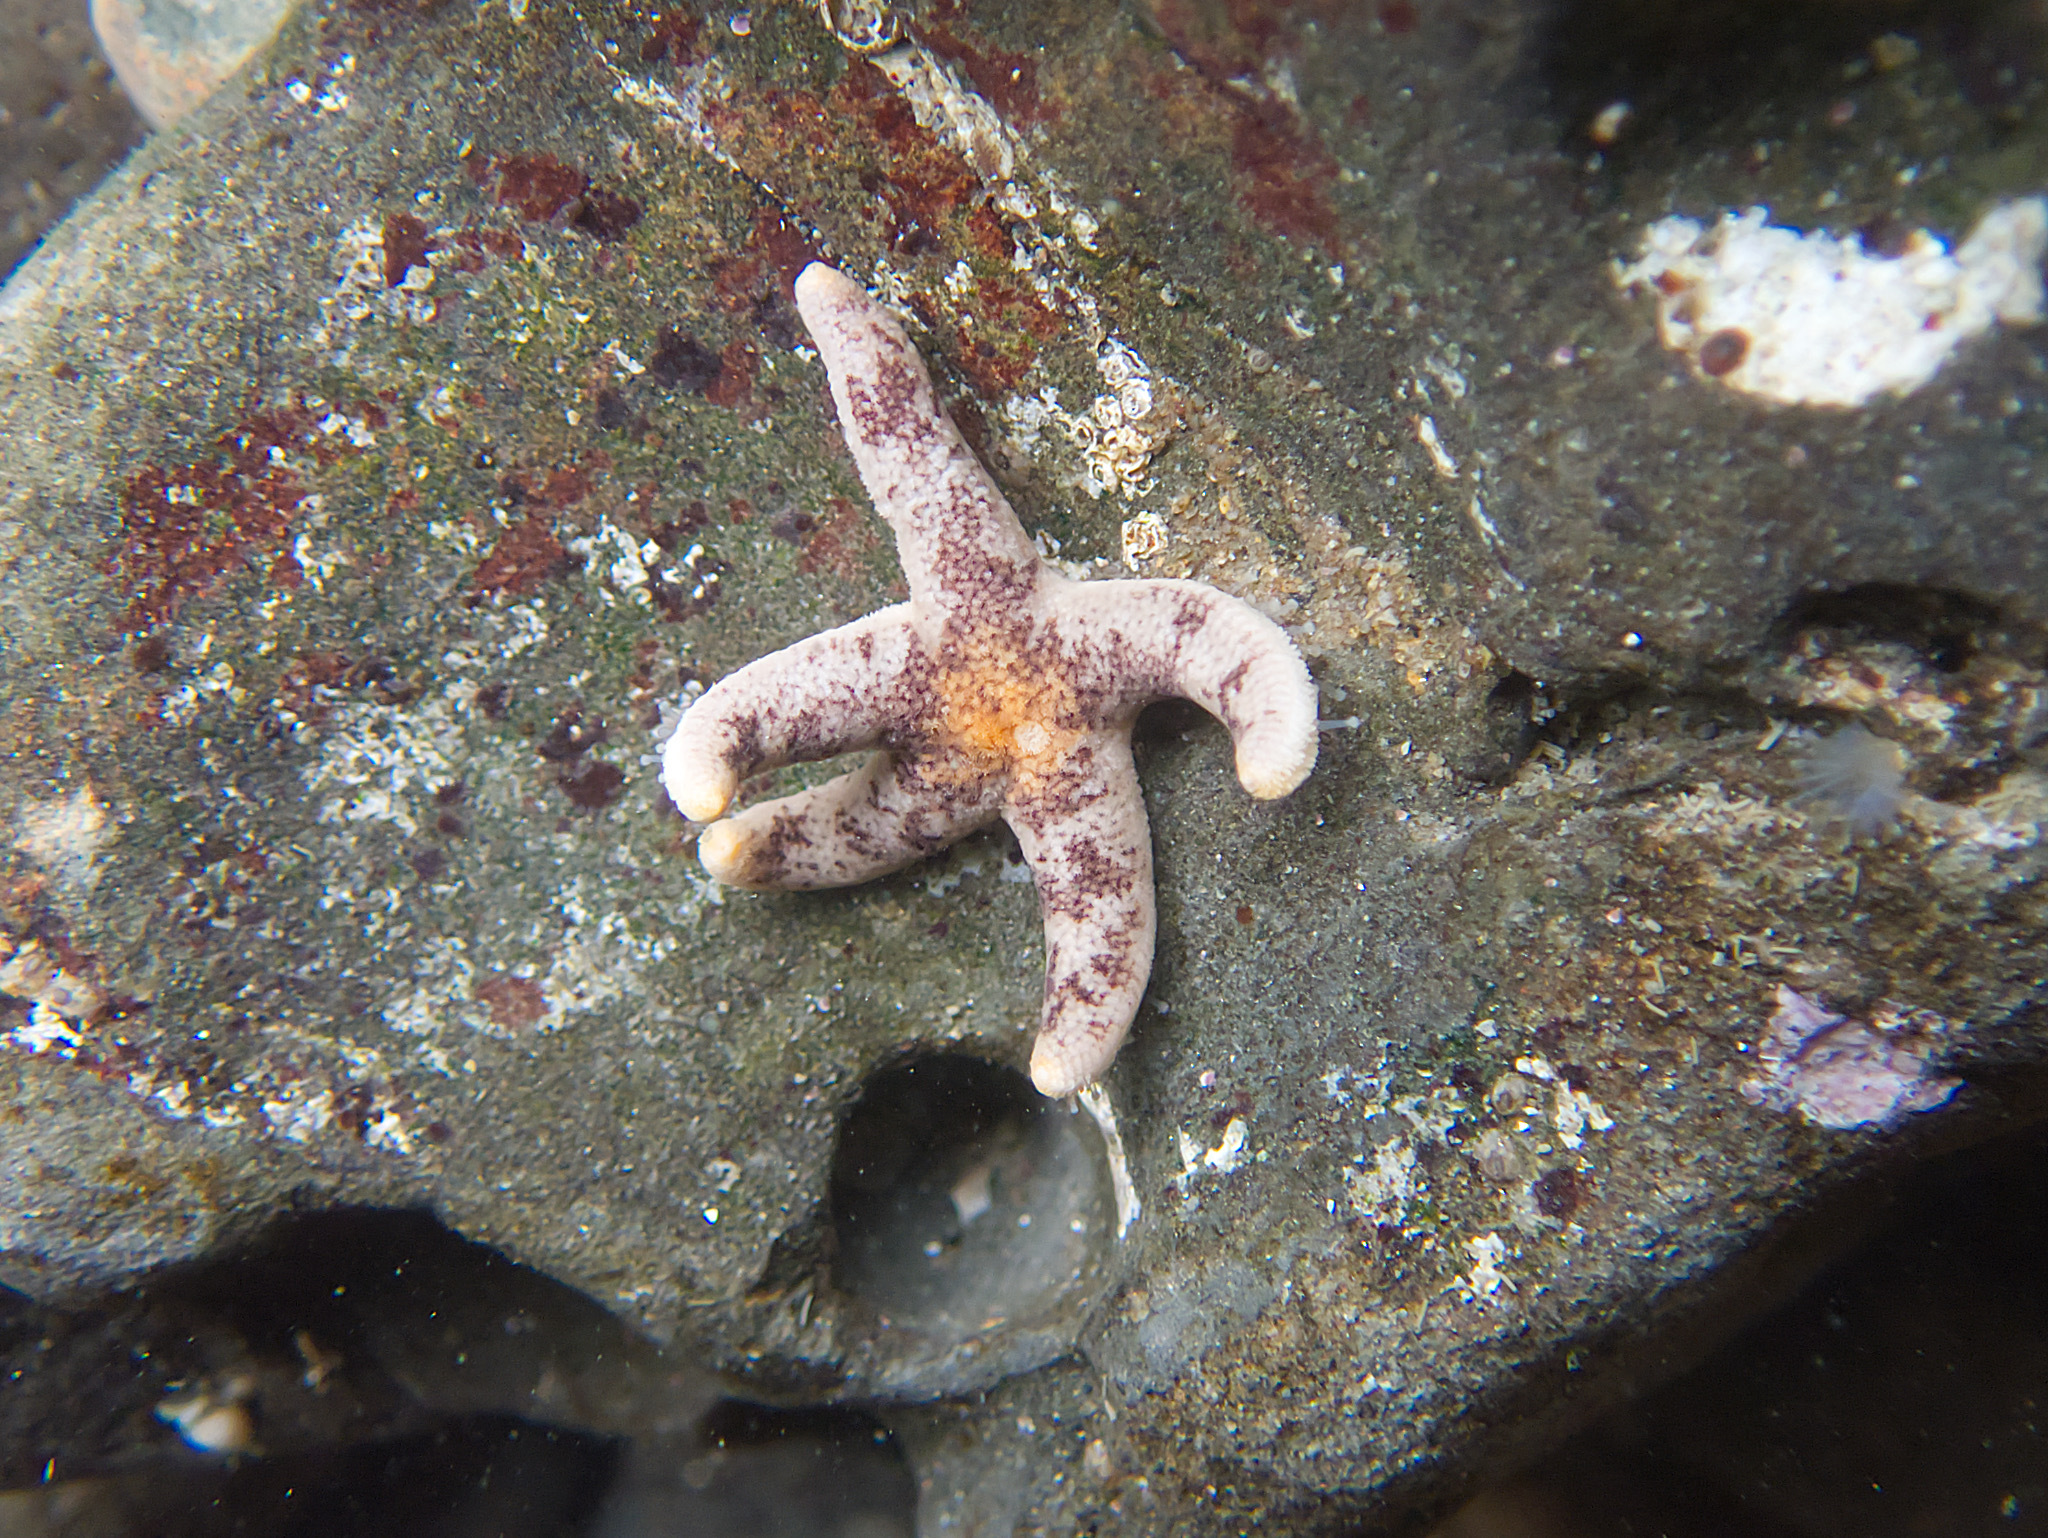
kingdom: Animalia
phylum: Echinodermata
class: Asteroidea
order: Spinulosida
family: Echinasteridae
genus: Henricia
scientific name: Henricia pumila
